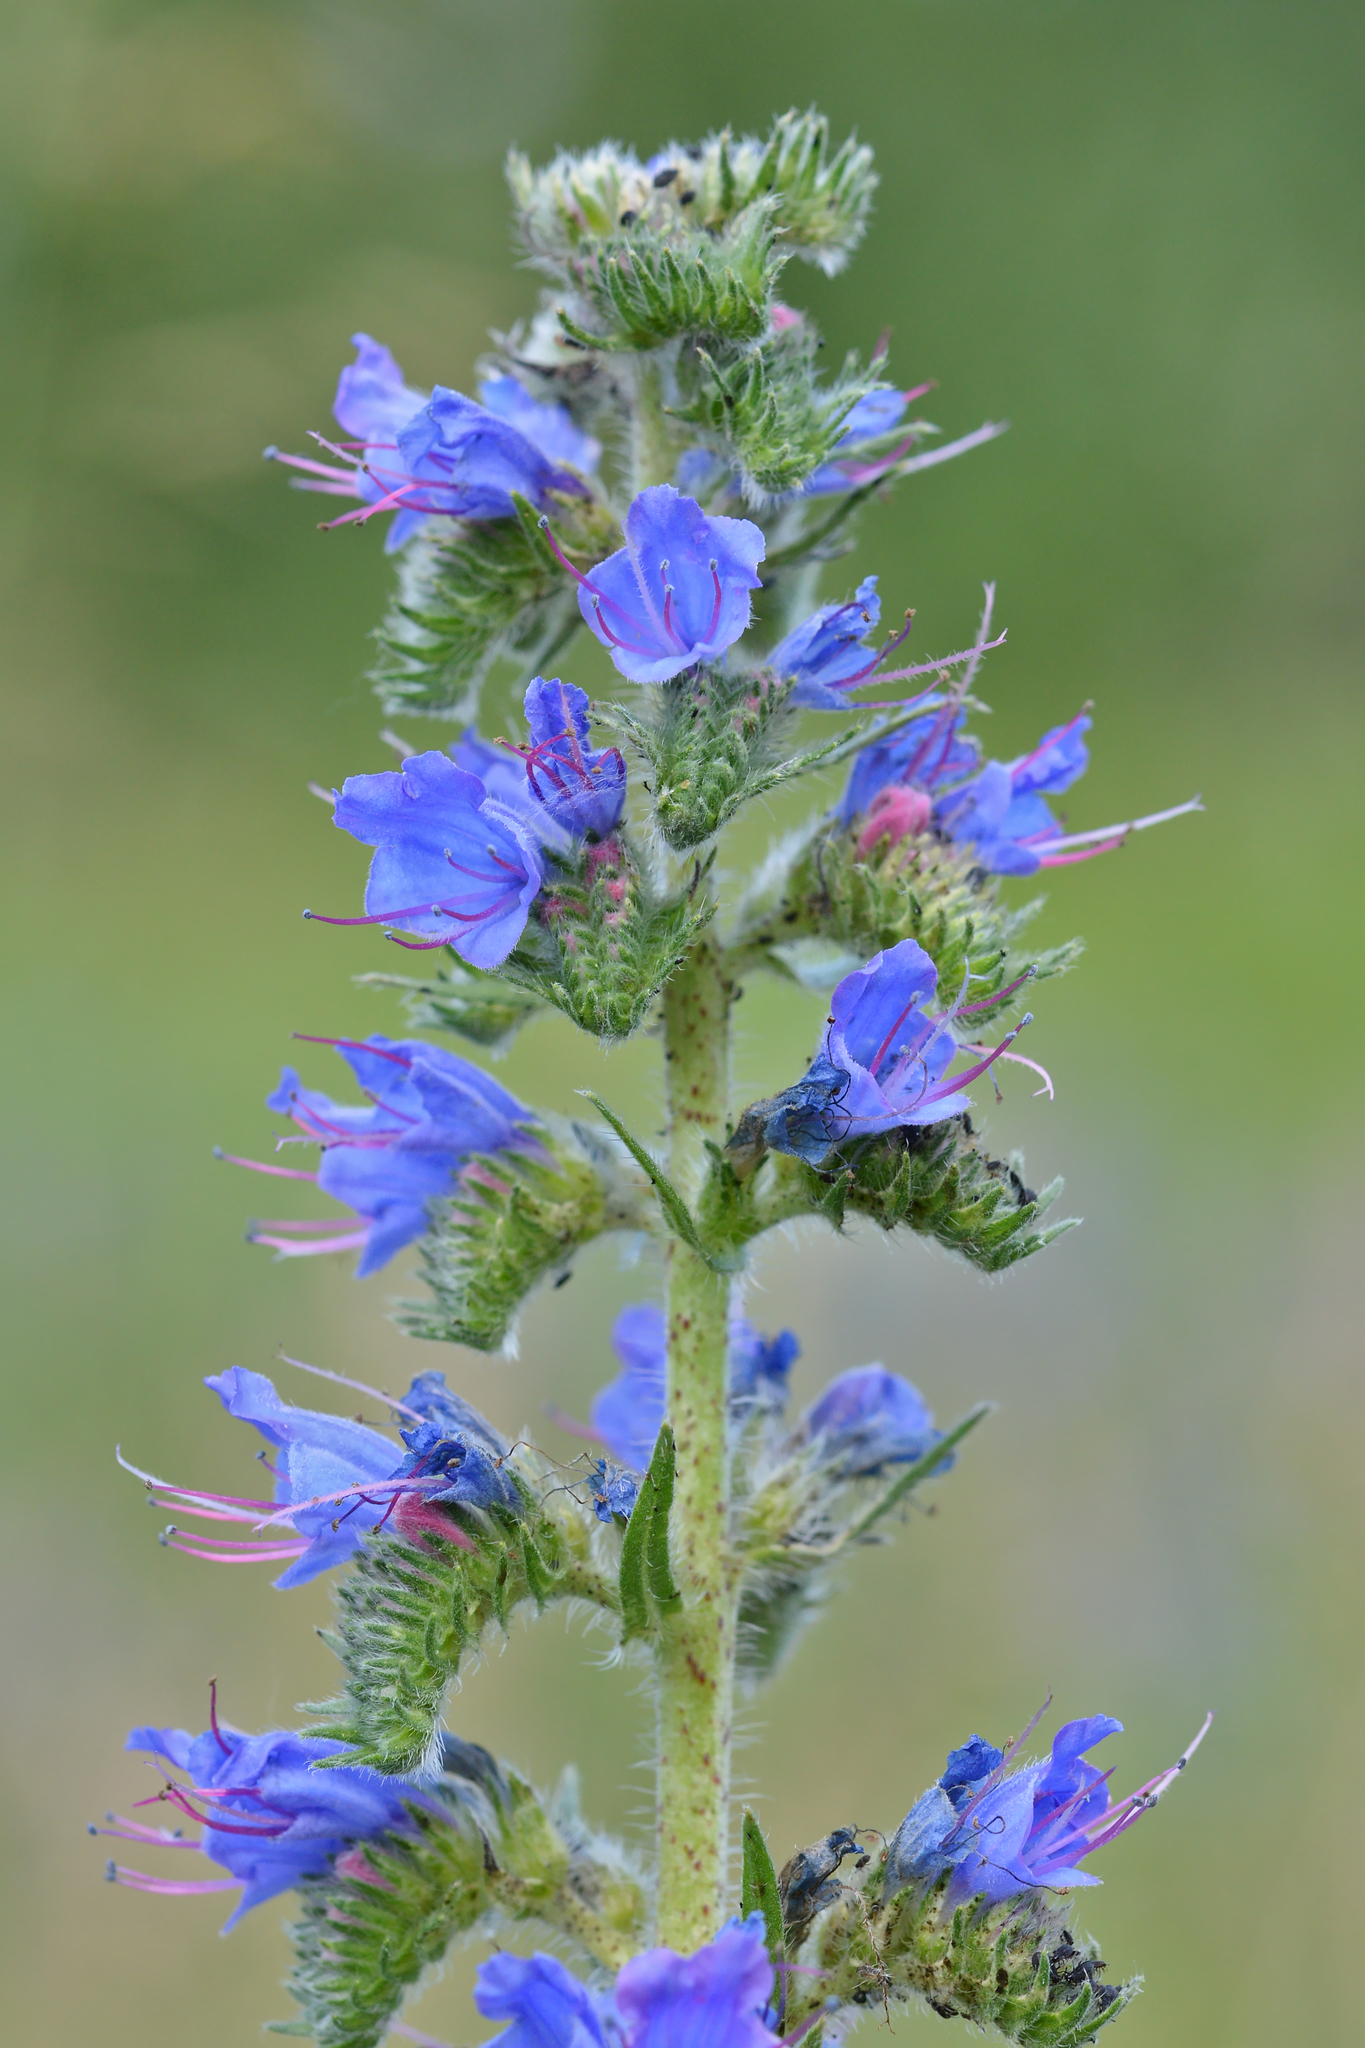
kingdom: Plantae
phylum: Tracheophyta
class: Magnoliopsida
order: Boraginales
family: Boraginaceae
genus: Echium
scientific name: Echium vulgare
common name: Common viper's bugloss
